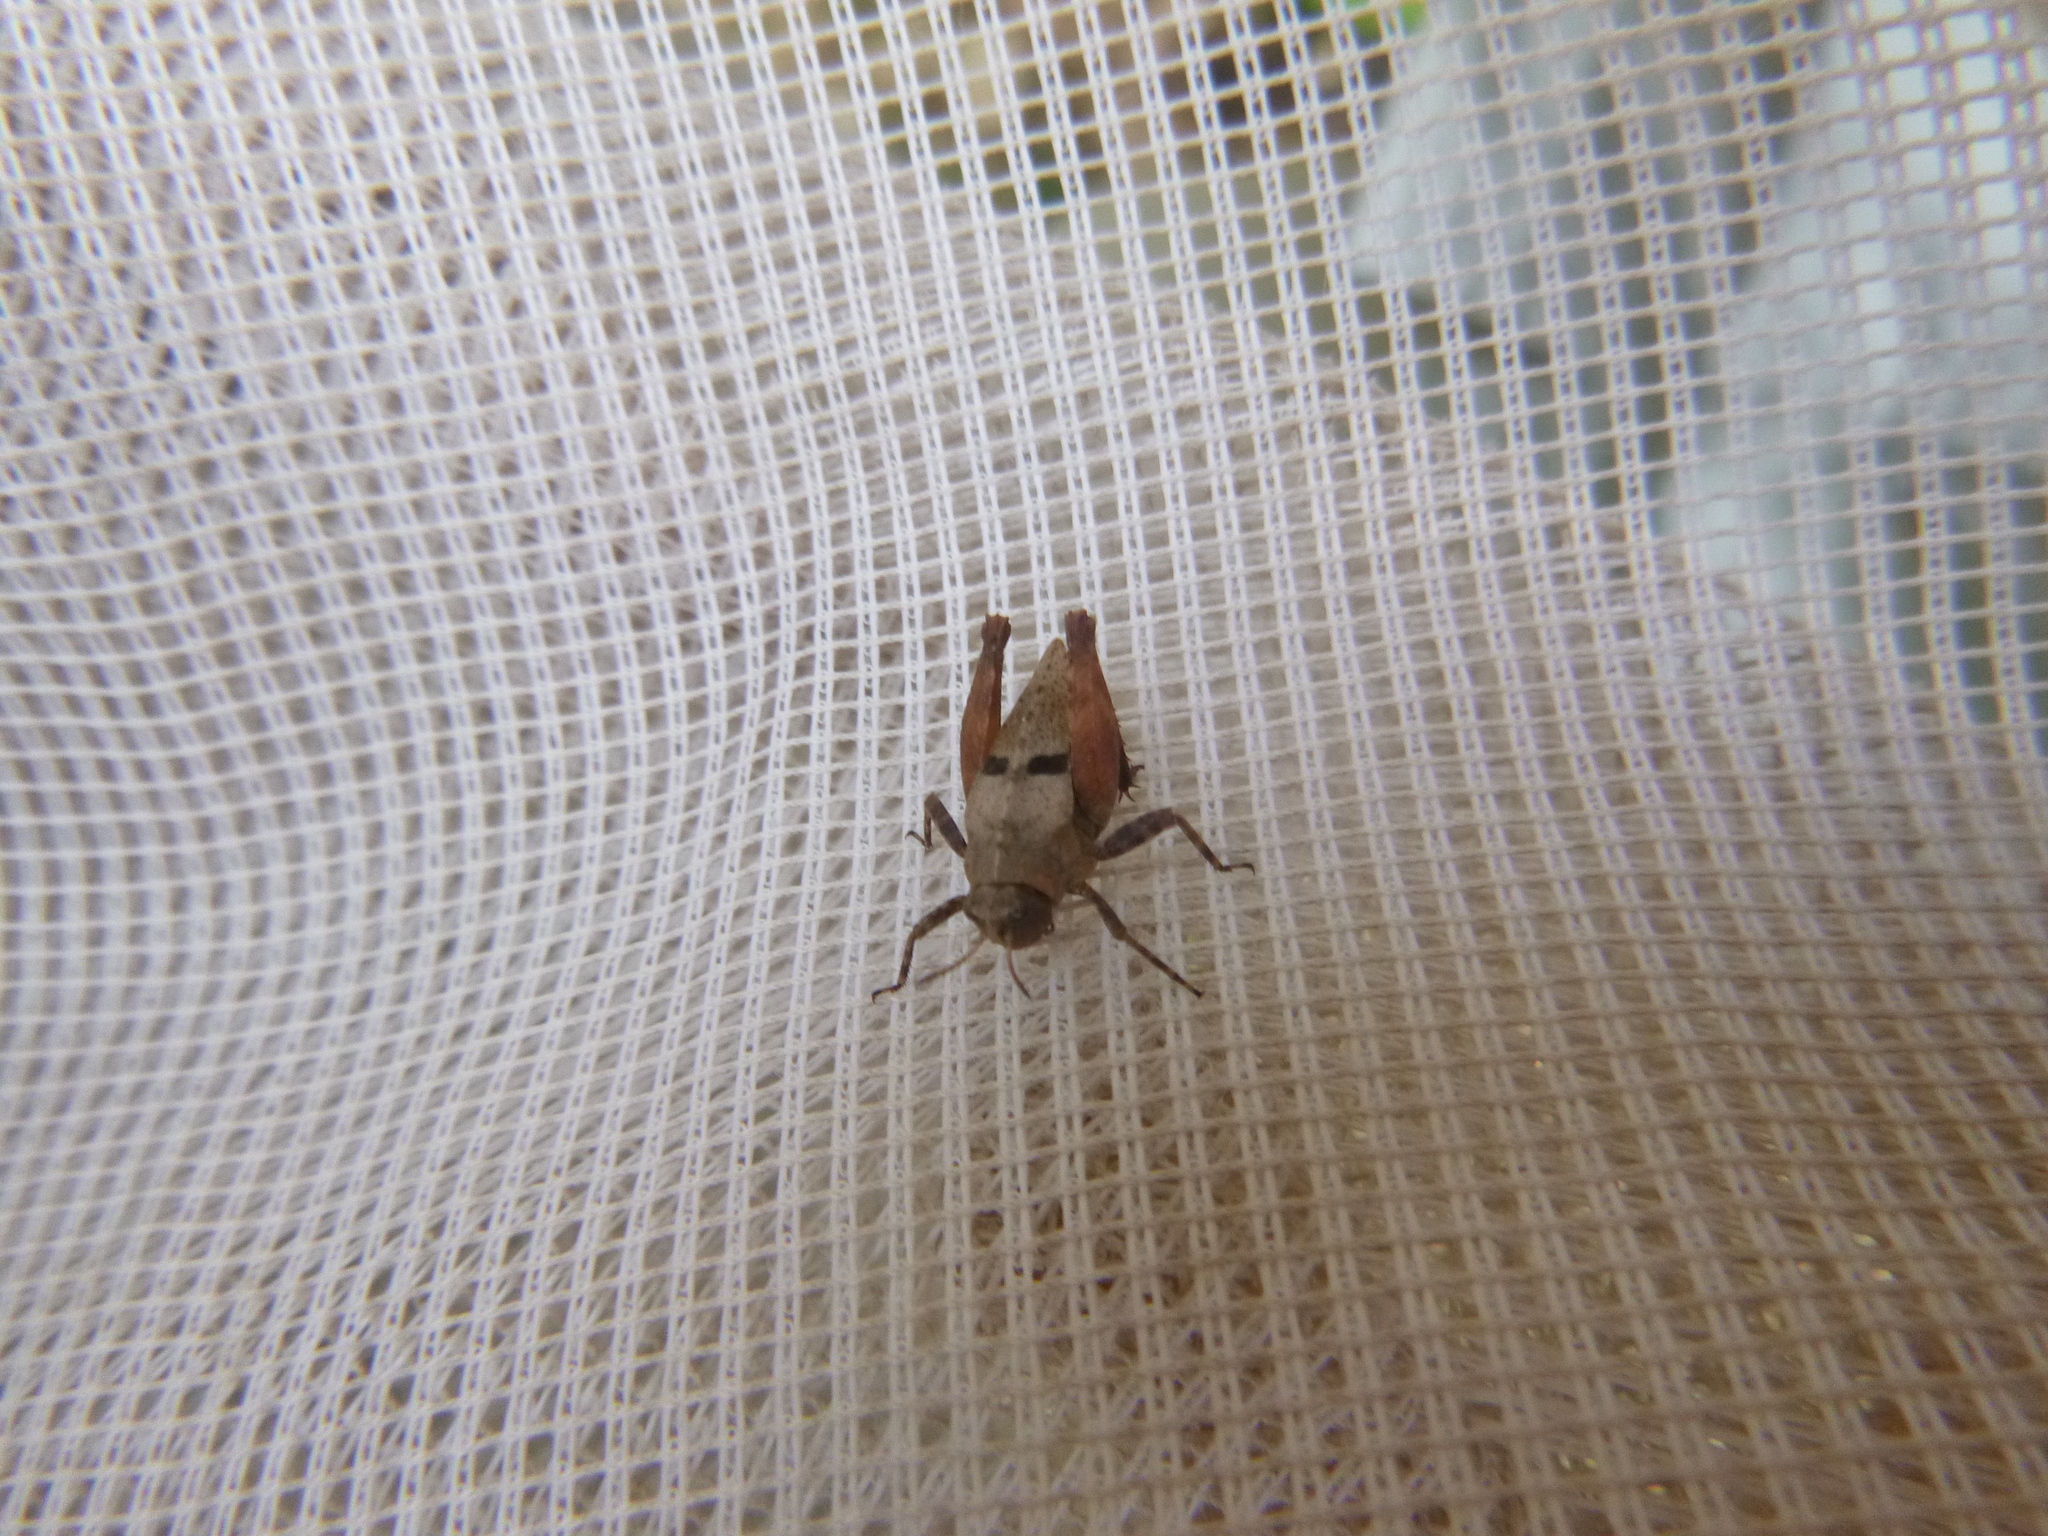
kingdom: Animalia
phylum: Arthropoda
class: Insecta
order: Orthoptera
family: Tetrigidae
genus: Tetrix
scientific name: Tetrix bipunctata
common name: Two-spotted groundhopper
